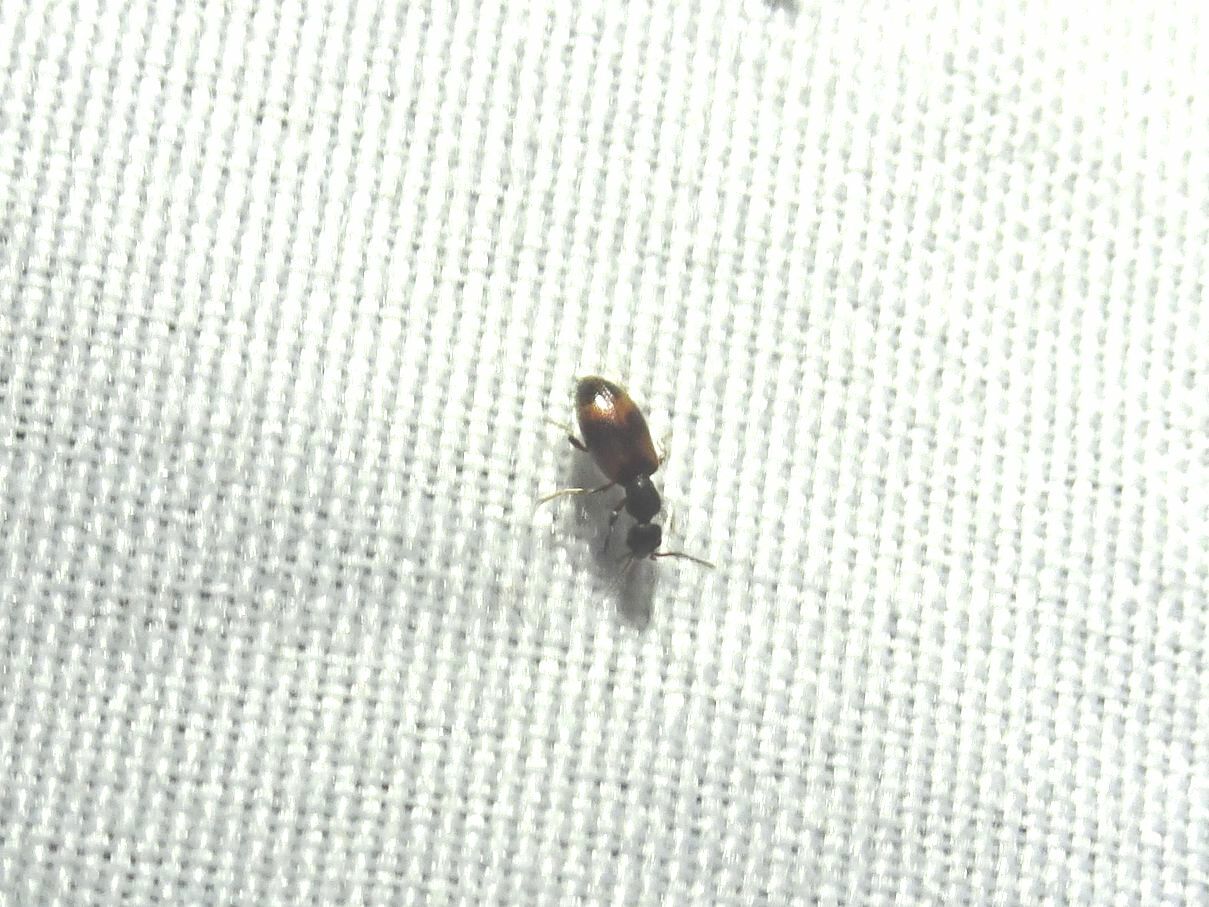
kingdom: Animalia
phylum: Arthropoda
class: Insecta
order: Coleoptera
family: Anthicidae
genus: Anthicus
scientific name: Anthicus antherinus
